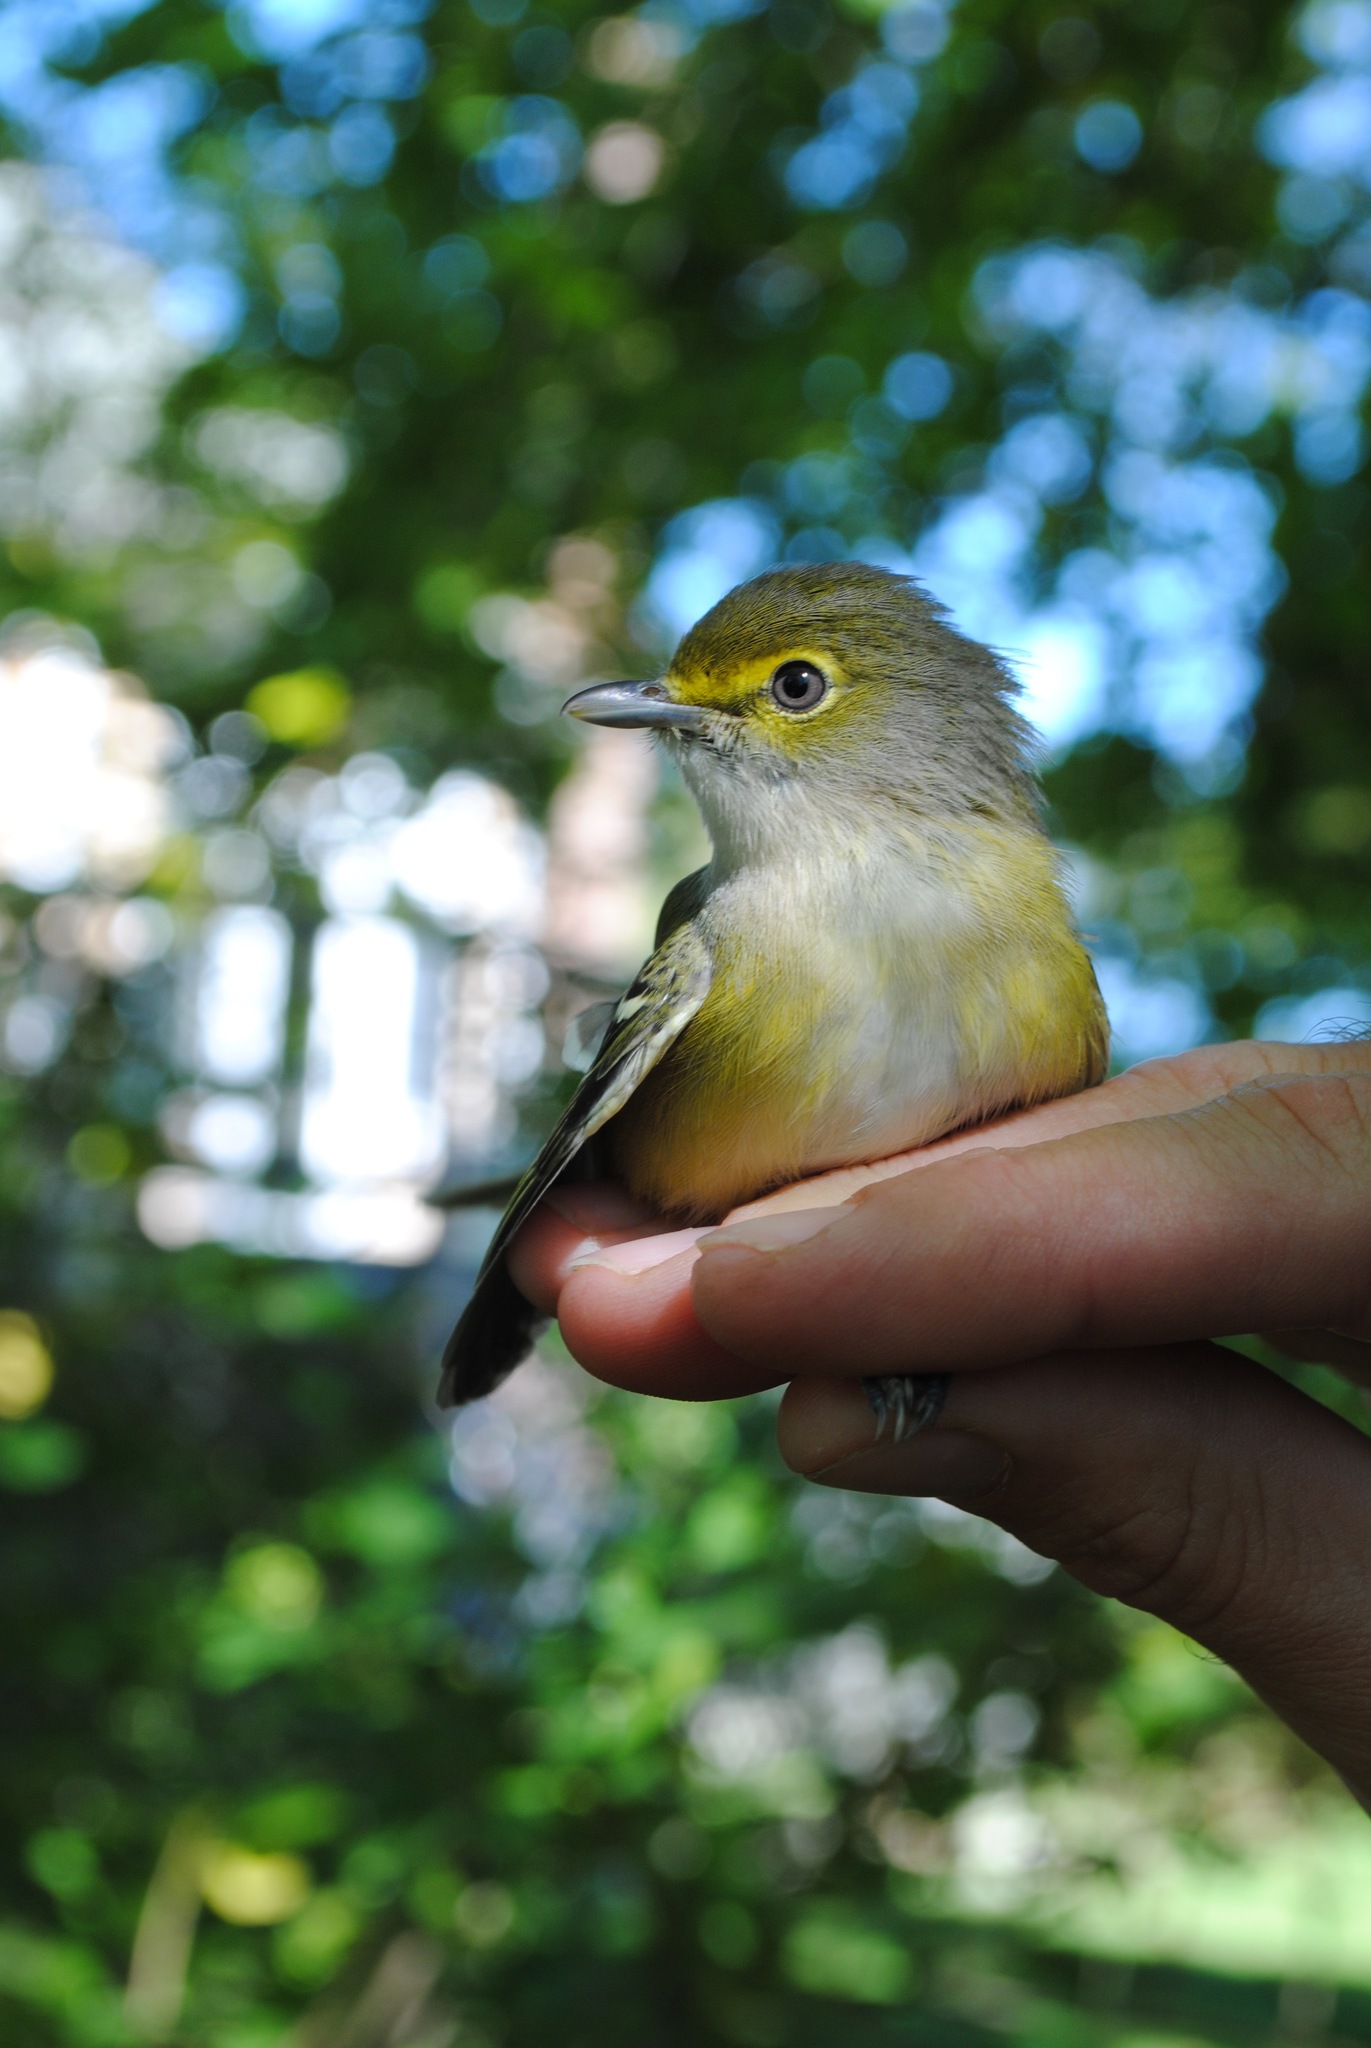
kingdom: Animalia
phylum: Chordata
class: Aves
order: Passeriformes
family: Vireonidae
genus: Vireo
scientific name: Vireo griseus
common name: White-eyed vireo
